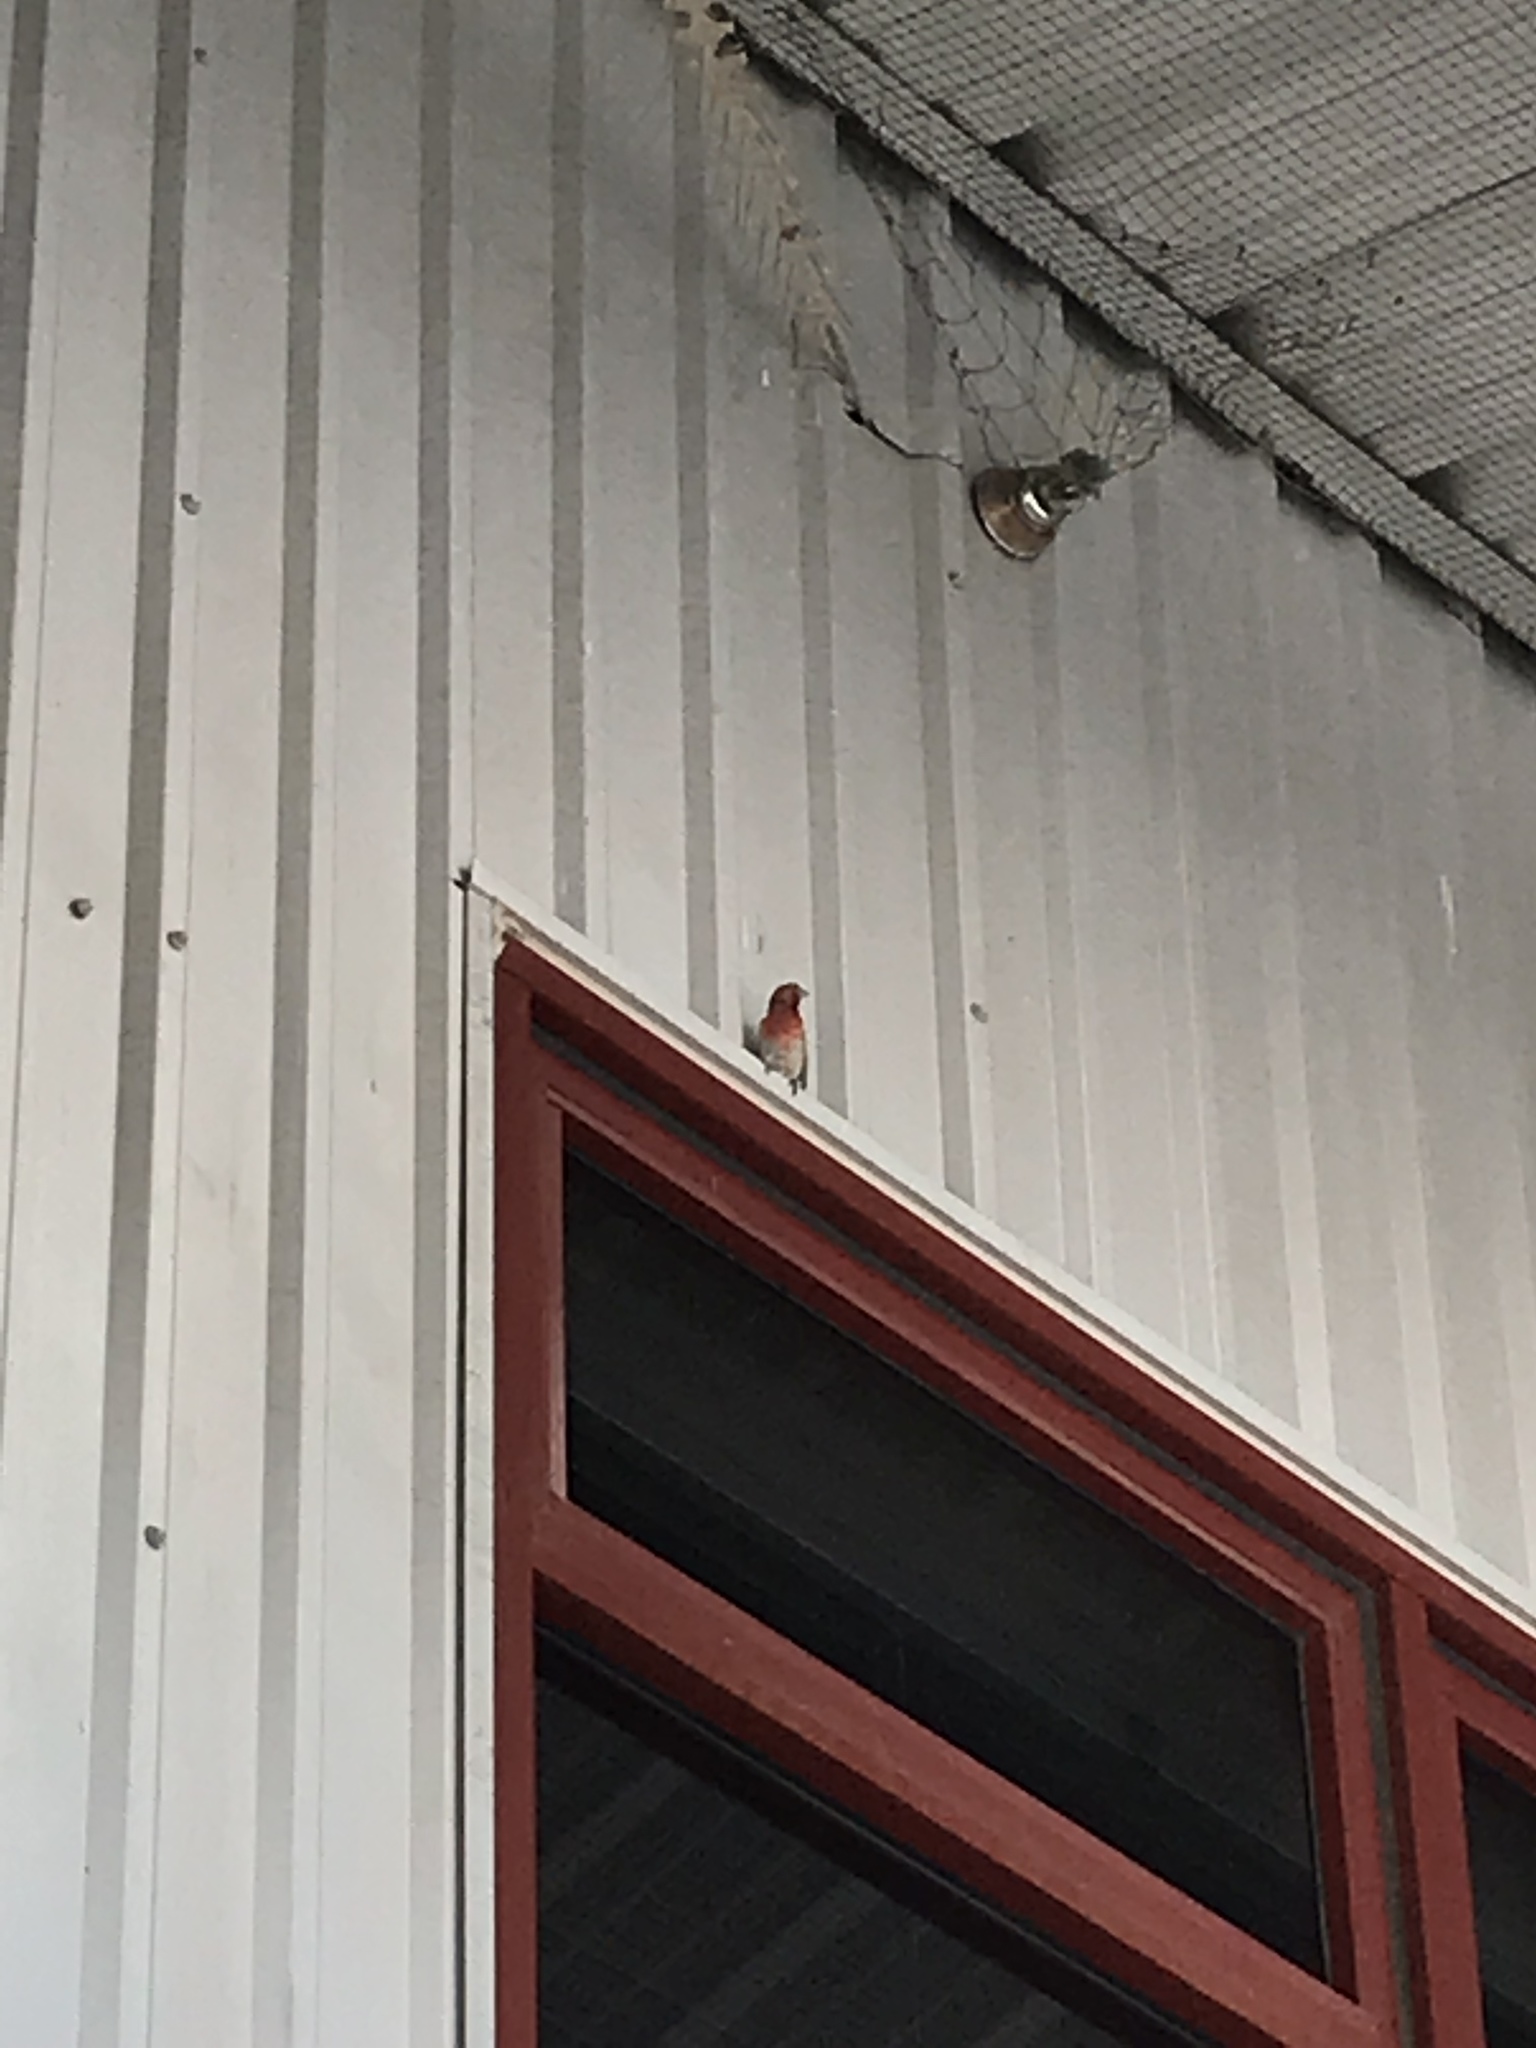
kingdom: Animalia
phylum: Chordata
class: Aves
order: Passeriformes
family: Fringillidae
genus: Haemorhous
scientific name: Haemorhous mexicanus
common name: House finch
